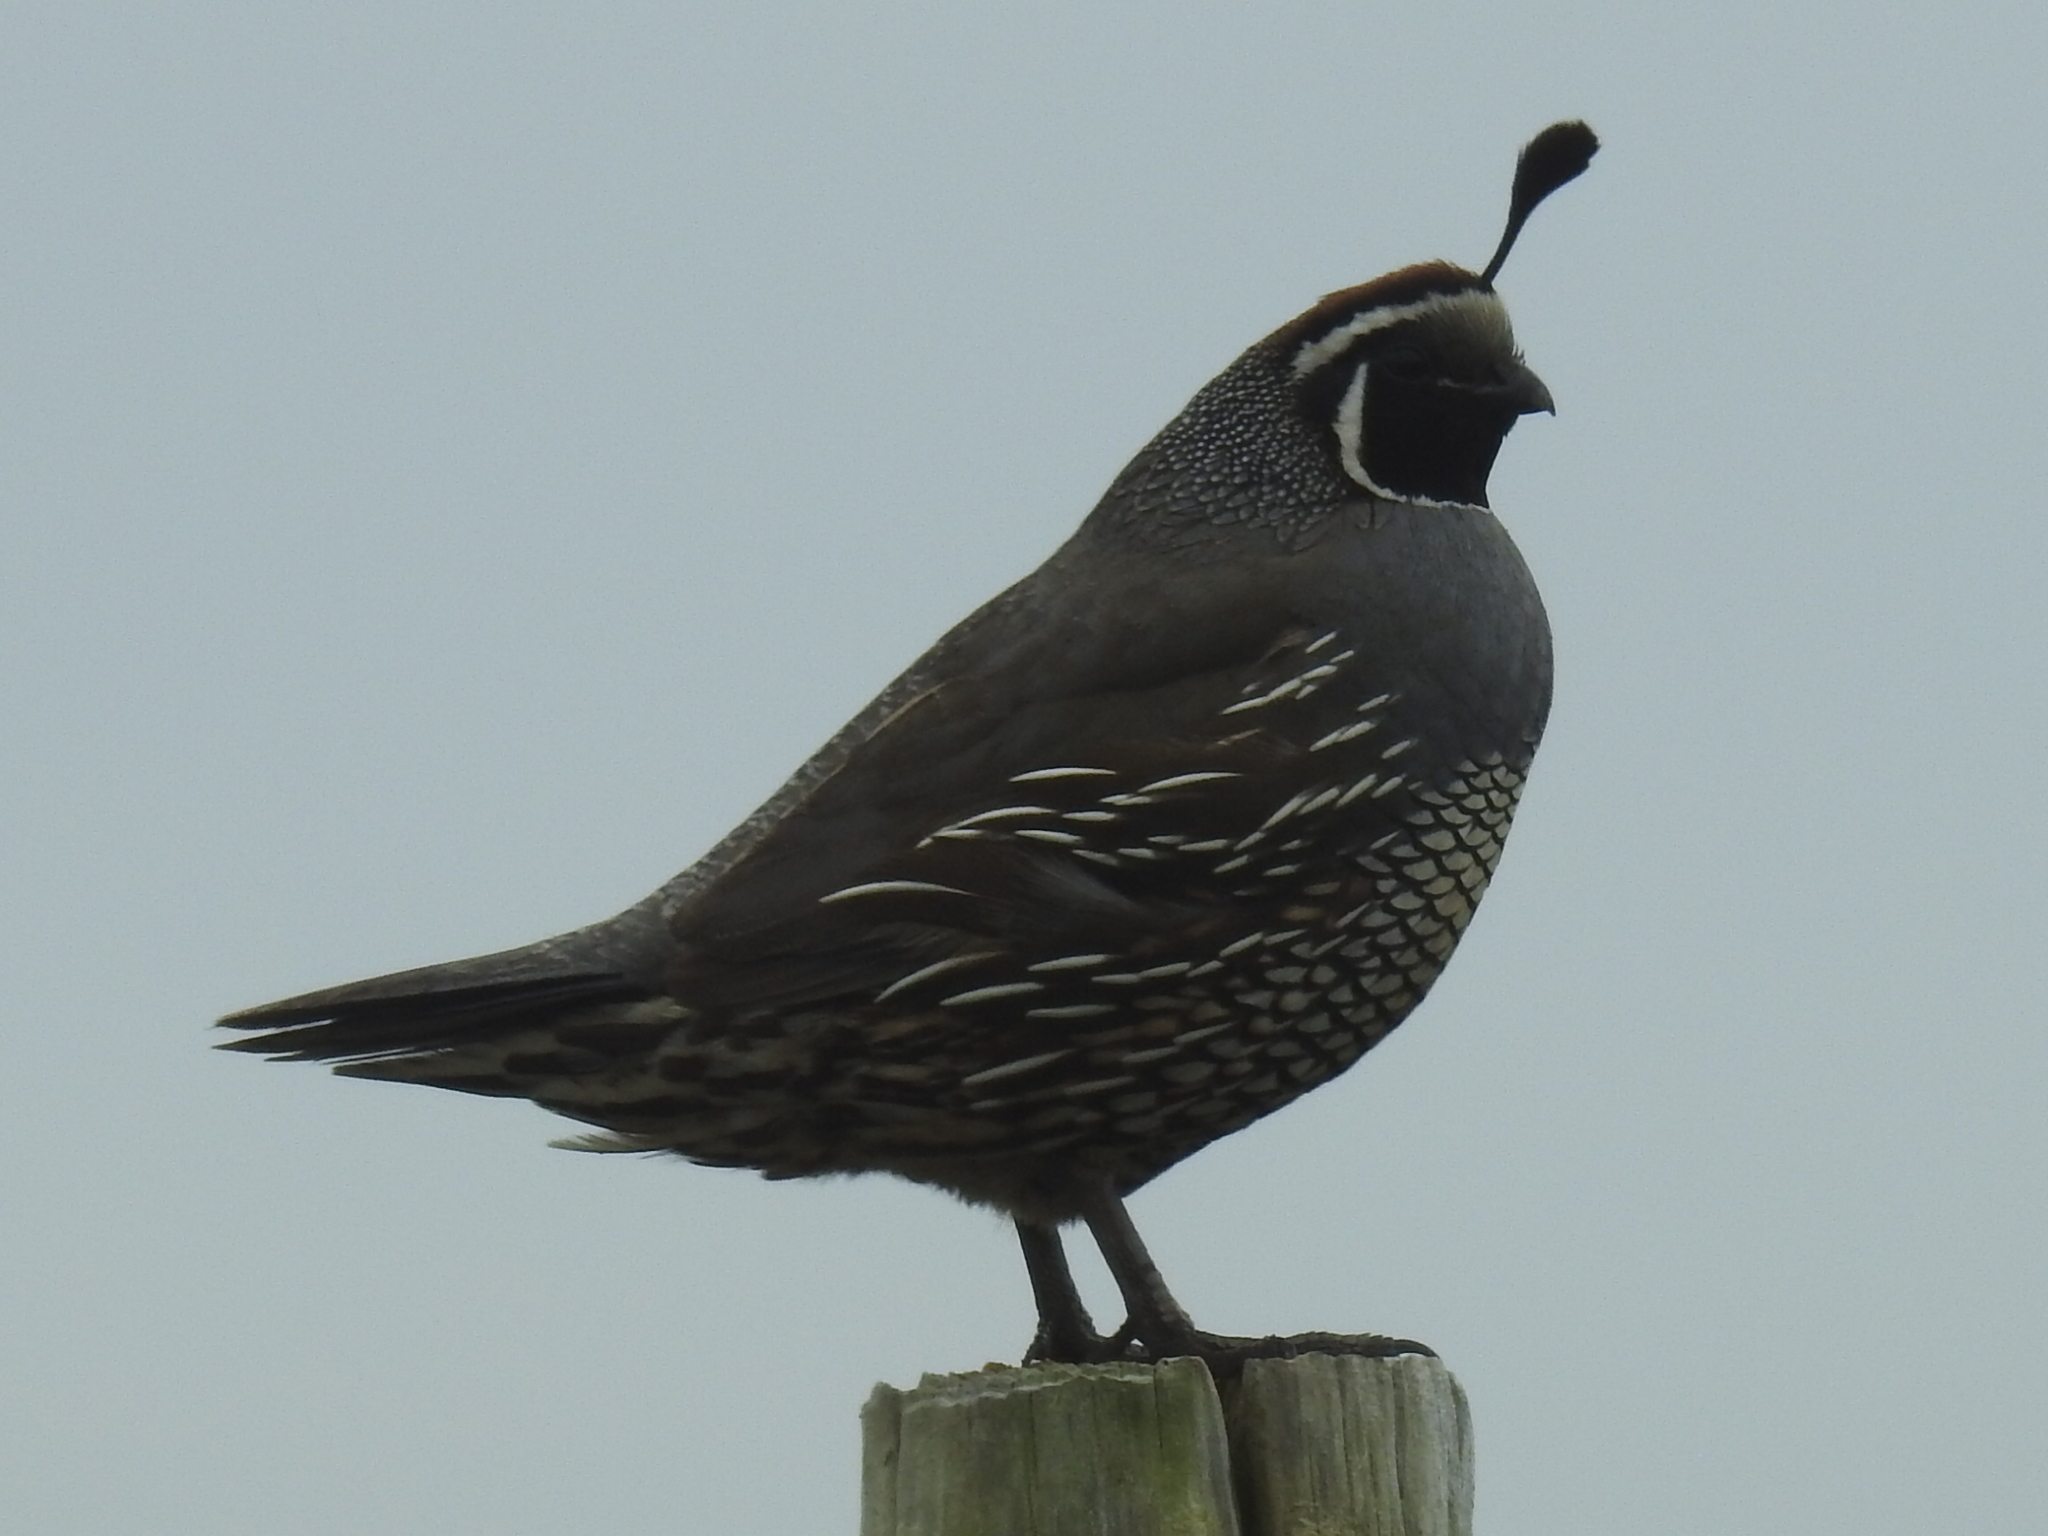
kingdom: Animalia
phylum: Chordata
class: Aves
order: Galliformes
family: Odontophoridae
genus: Callipepla
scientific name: Callipepla californica
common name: California quail
